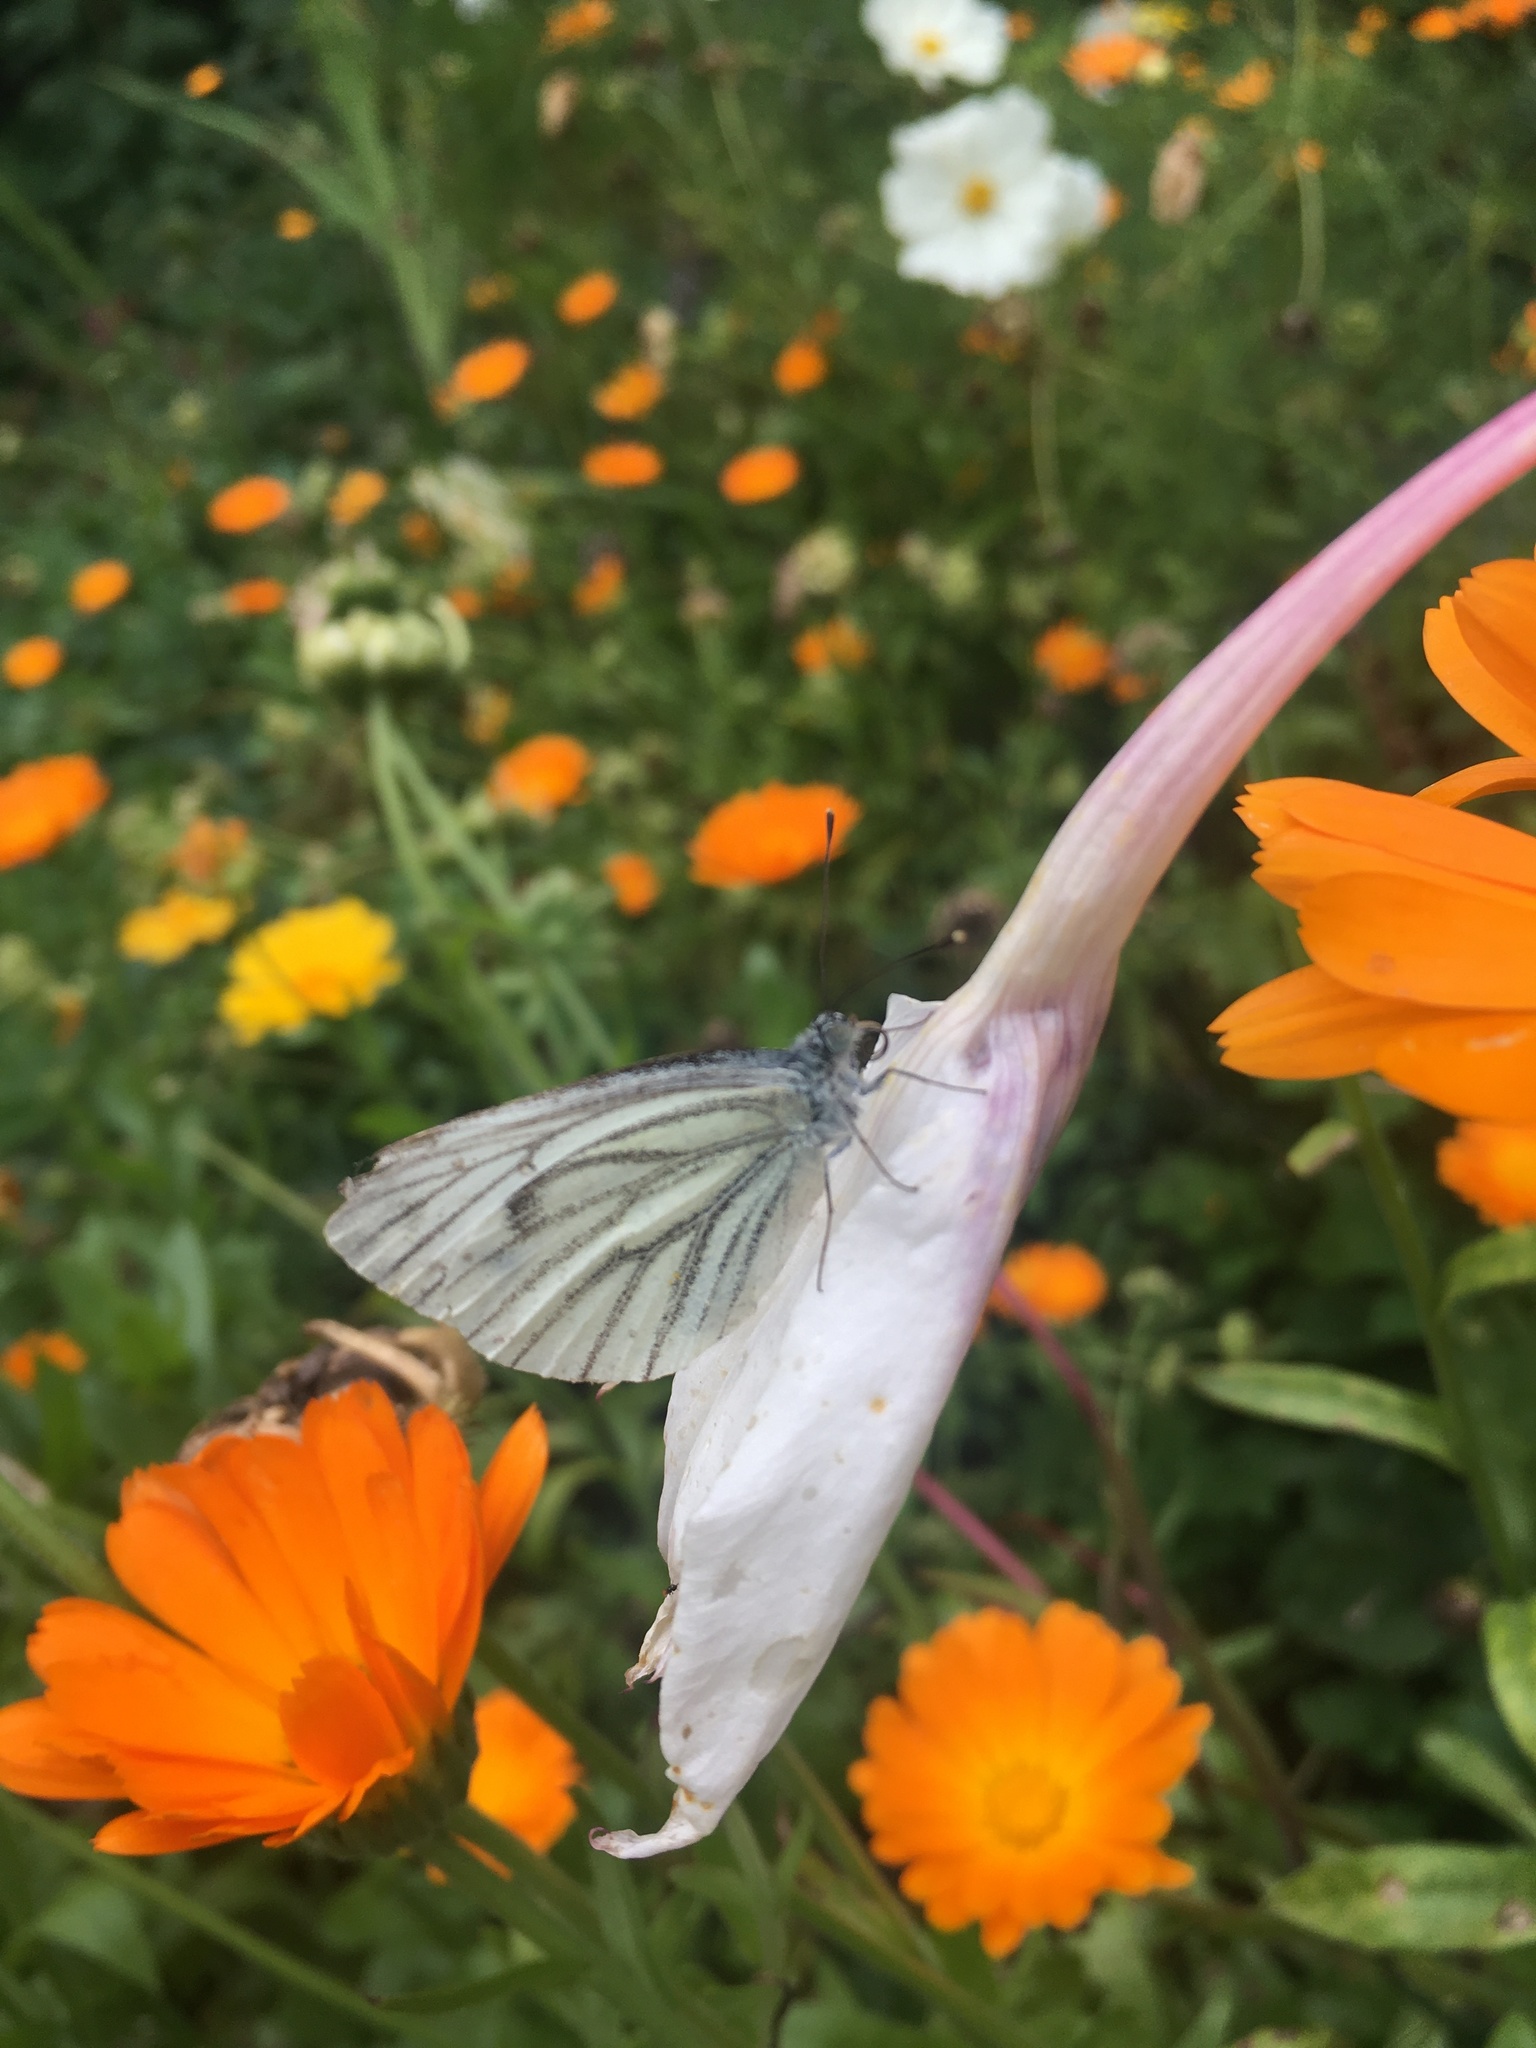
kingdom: Animalia
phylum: Arthropoda
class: Insecta
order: Lepidoptera
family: Pieridae
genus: Pieris
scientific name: Pieris napi
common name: Green-veined white
